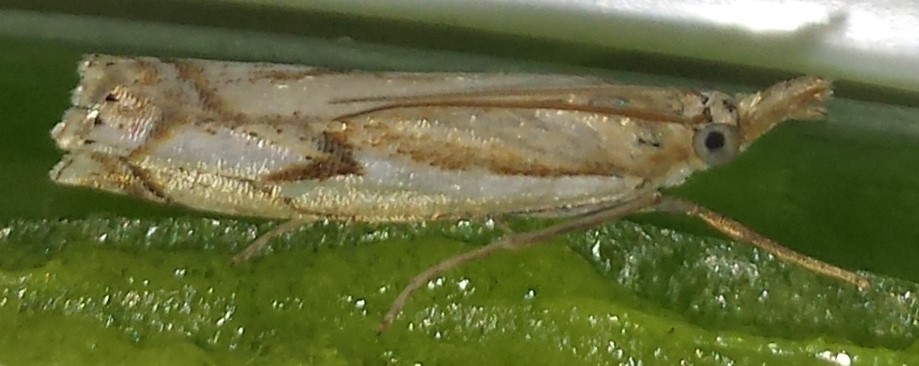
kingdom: Animalia
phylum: Arthropoda
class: Insecta
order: Lepidoptera
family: Crambidae
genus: Crambus
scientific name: Crambus agitatellus
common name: Double-banded grass-veneer
